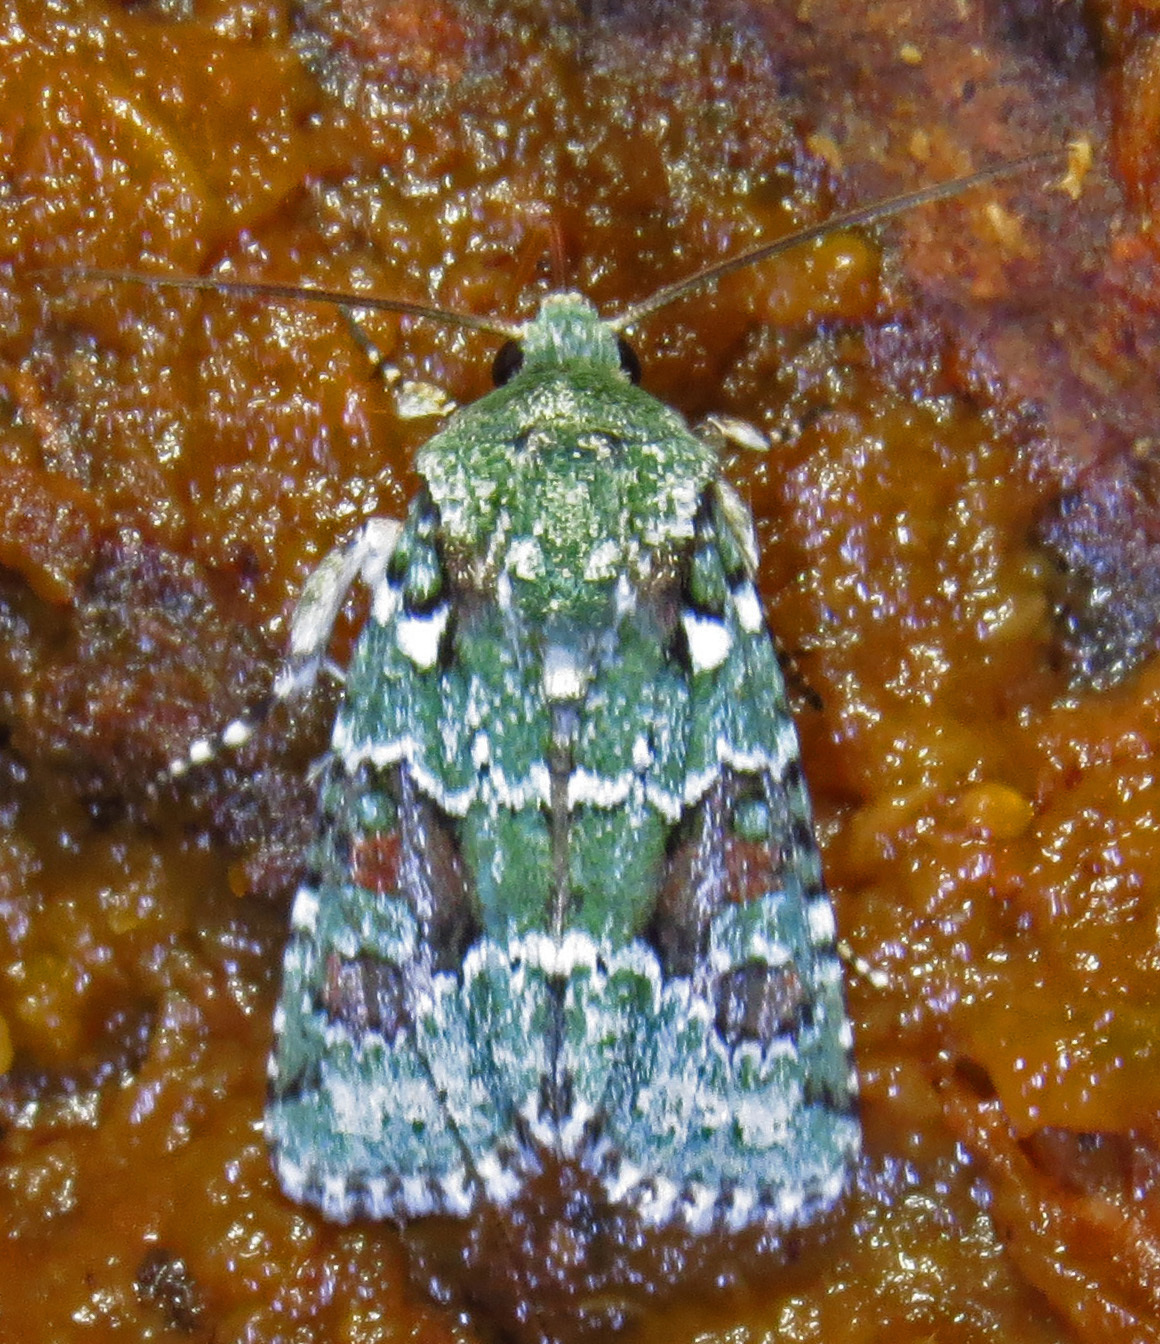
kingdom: Animalia
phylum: Arthropoda
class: Insecta
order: Lepidoptera
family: Noctuidae
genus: Lacinipolia
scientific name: Lacinipolia laudabilis
